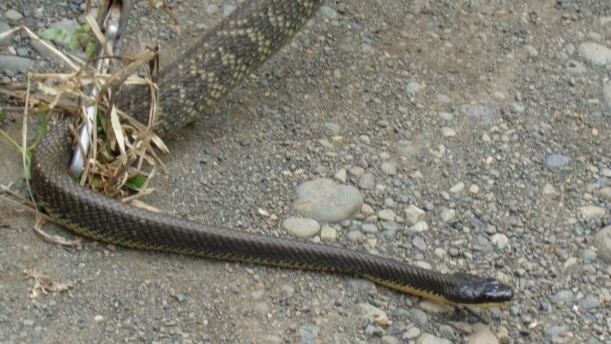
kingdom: Animalia
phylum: Chordata
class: Squamata
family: Colubridae
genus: Phrynonax
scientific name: Phrynonax poecilonotus
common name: Puffing snake
